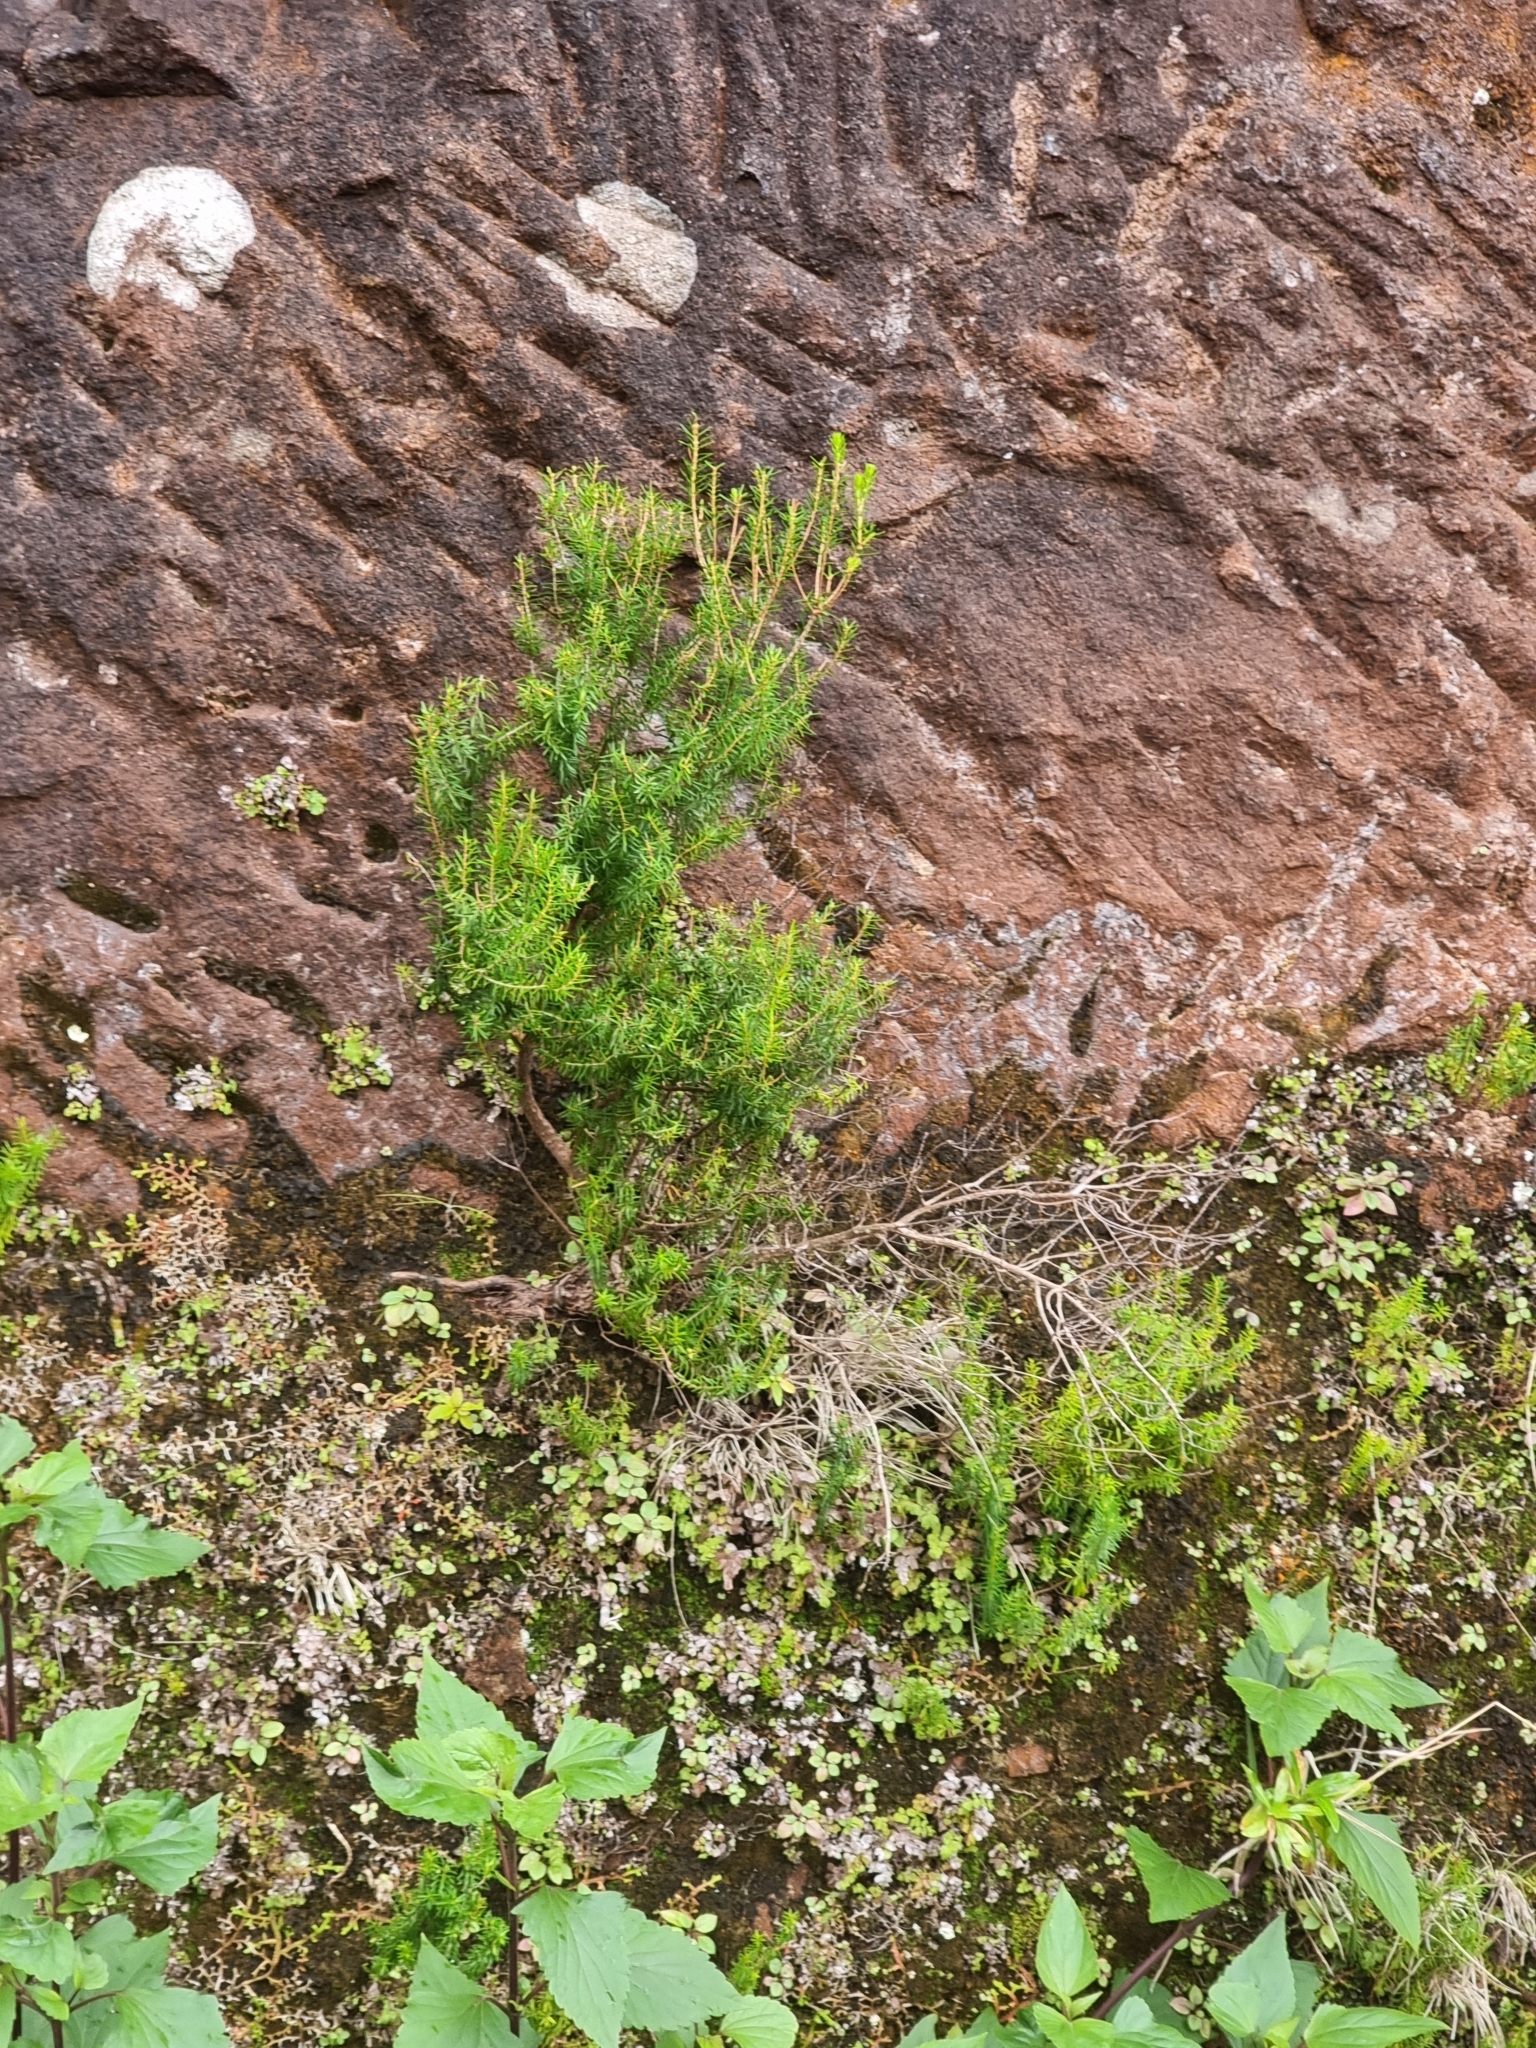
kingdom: Plantae
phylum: Tracheophyta
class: Magnoliopsida
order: Ericales
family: Ericaceae
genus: Erica
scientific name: Erica platycodon
